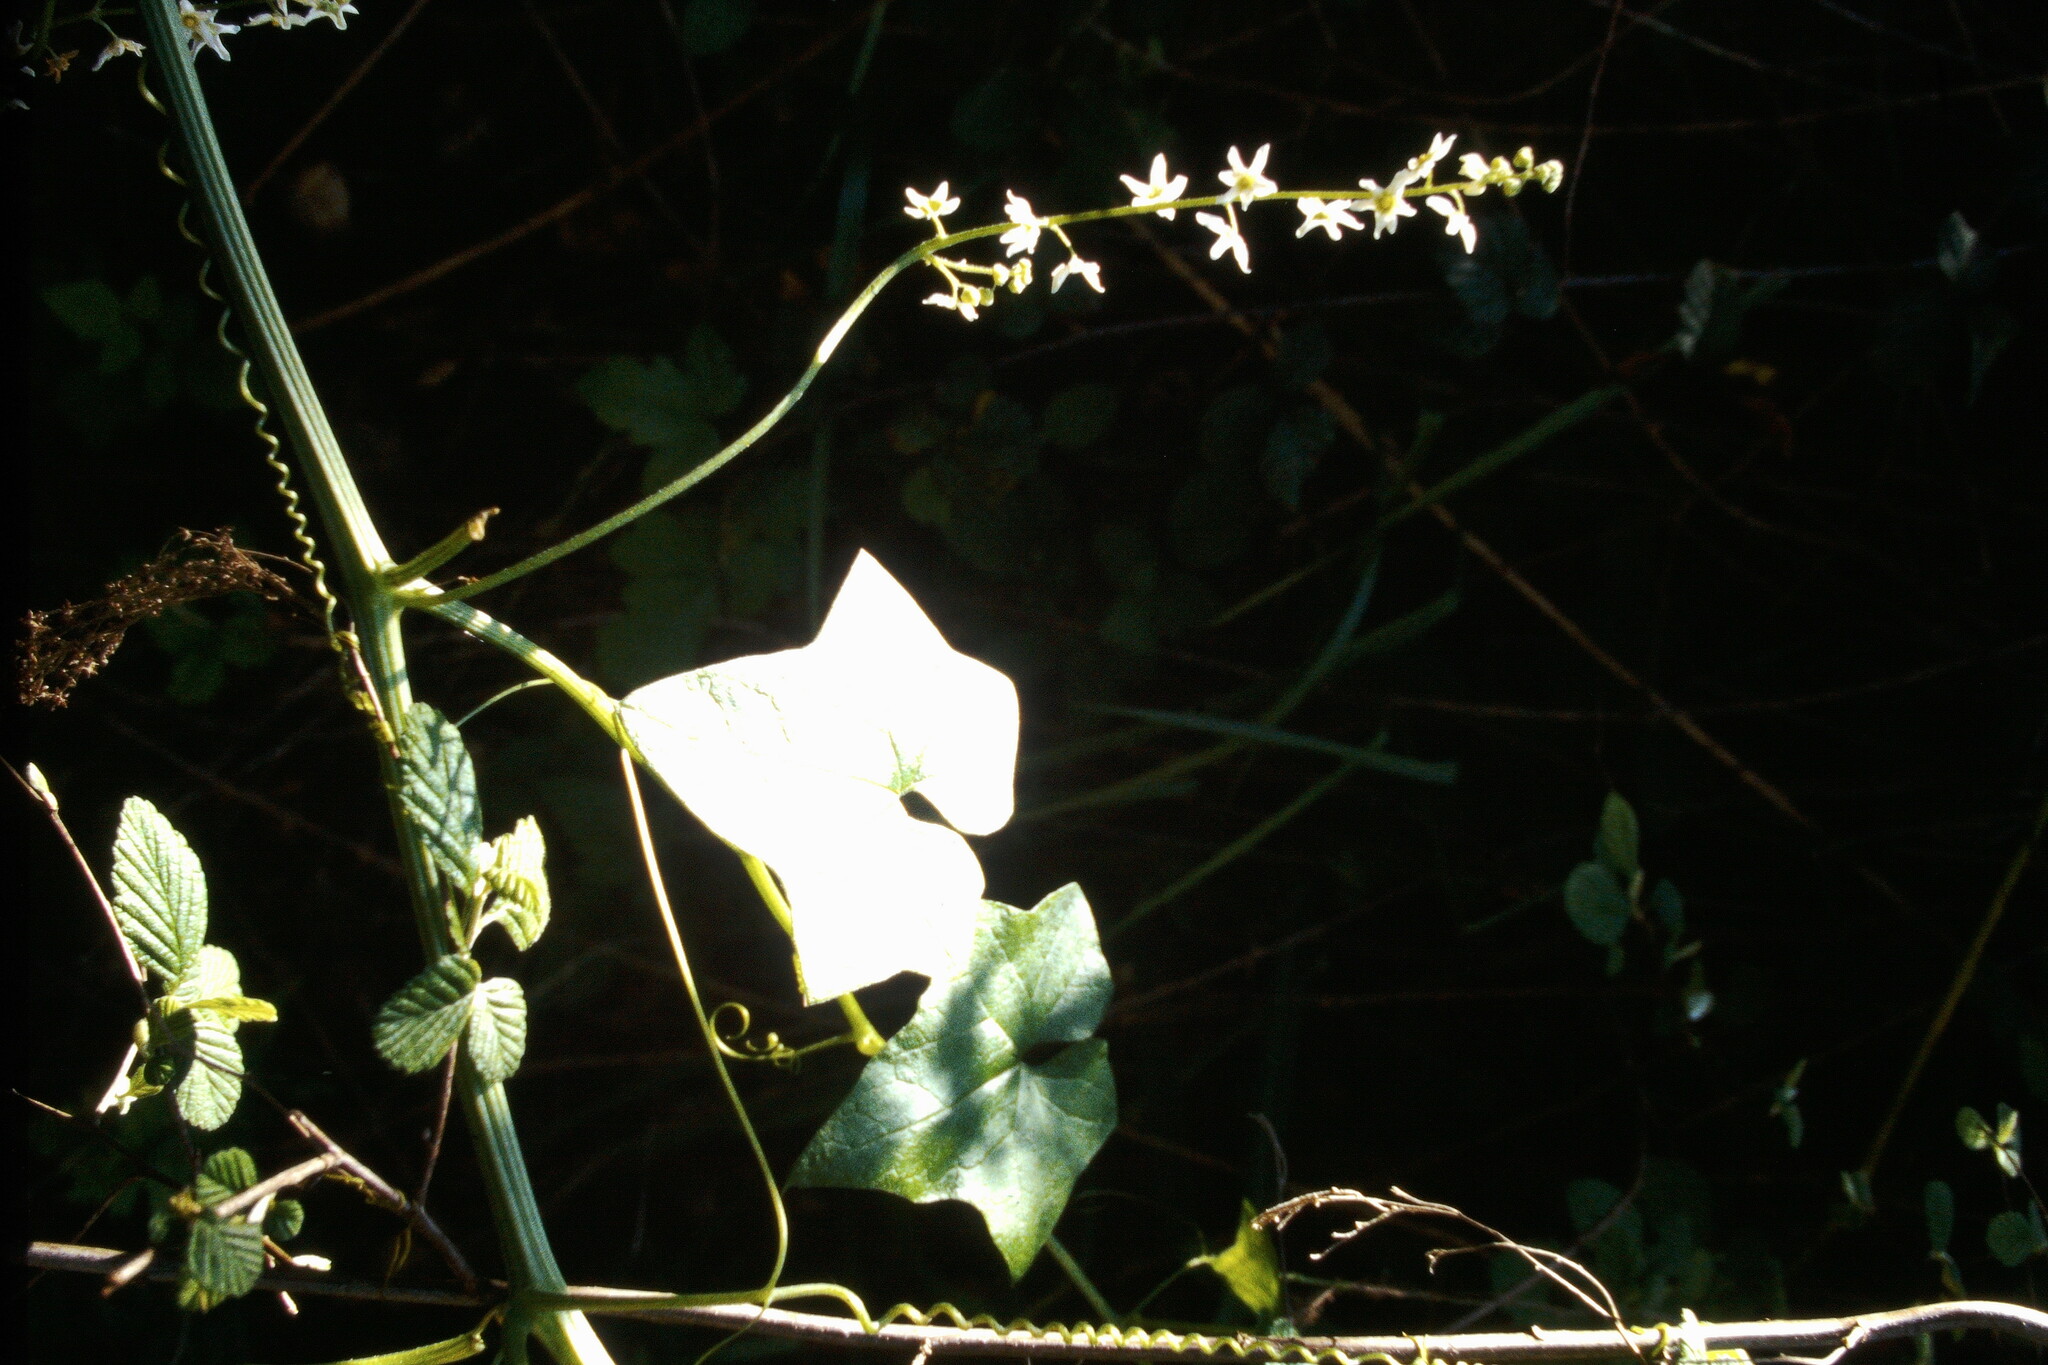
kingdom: Plantae
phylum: Tracheophyta
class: Magnoliopsida
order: Cucurbitales
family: Cucurbitaceae
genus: Marah
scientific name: Marah fabacea
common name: California manroot
